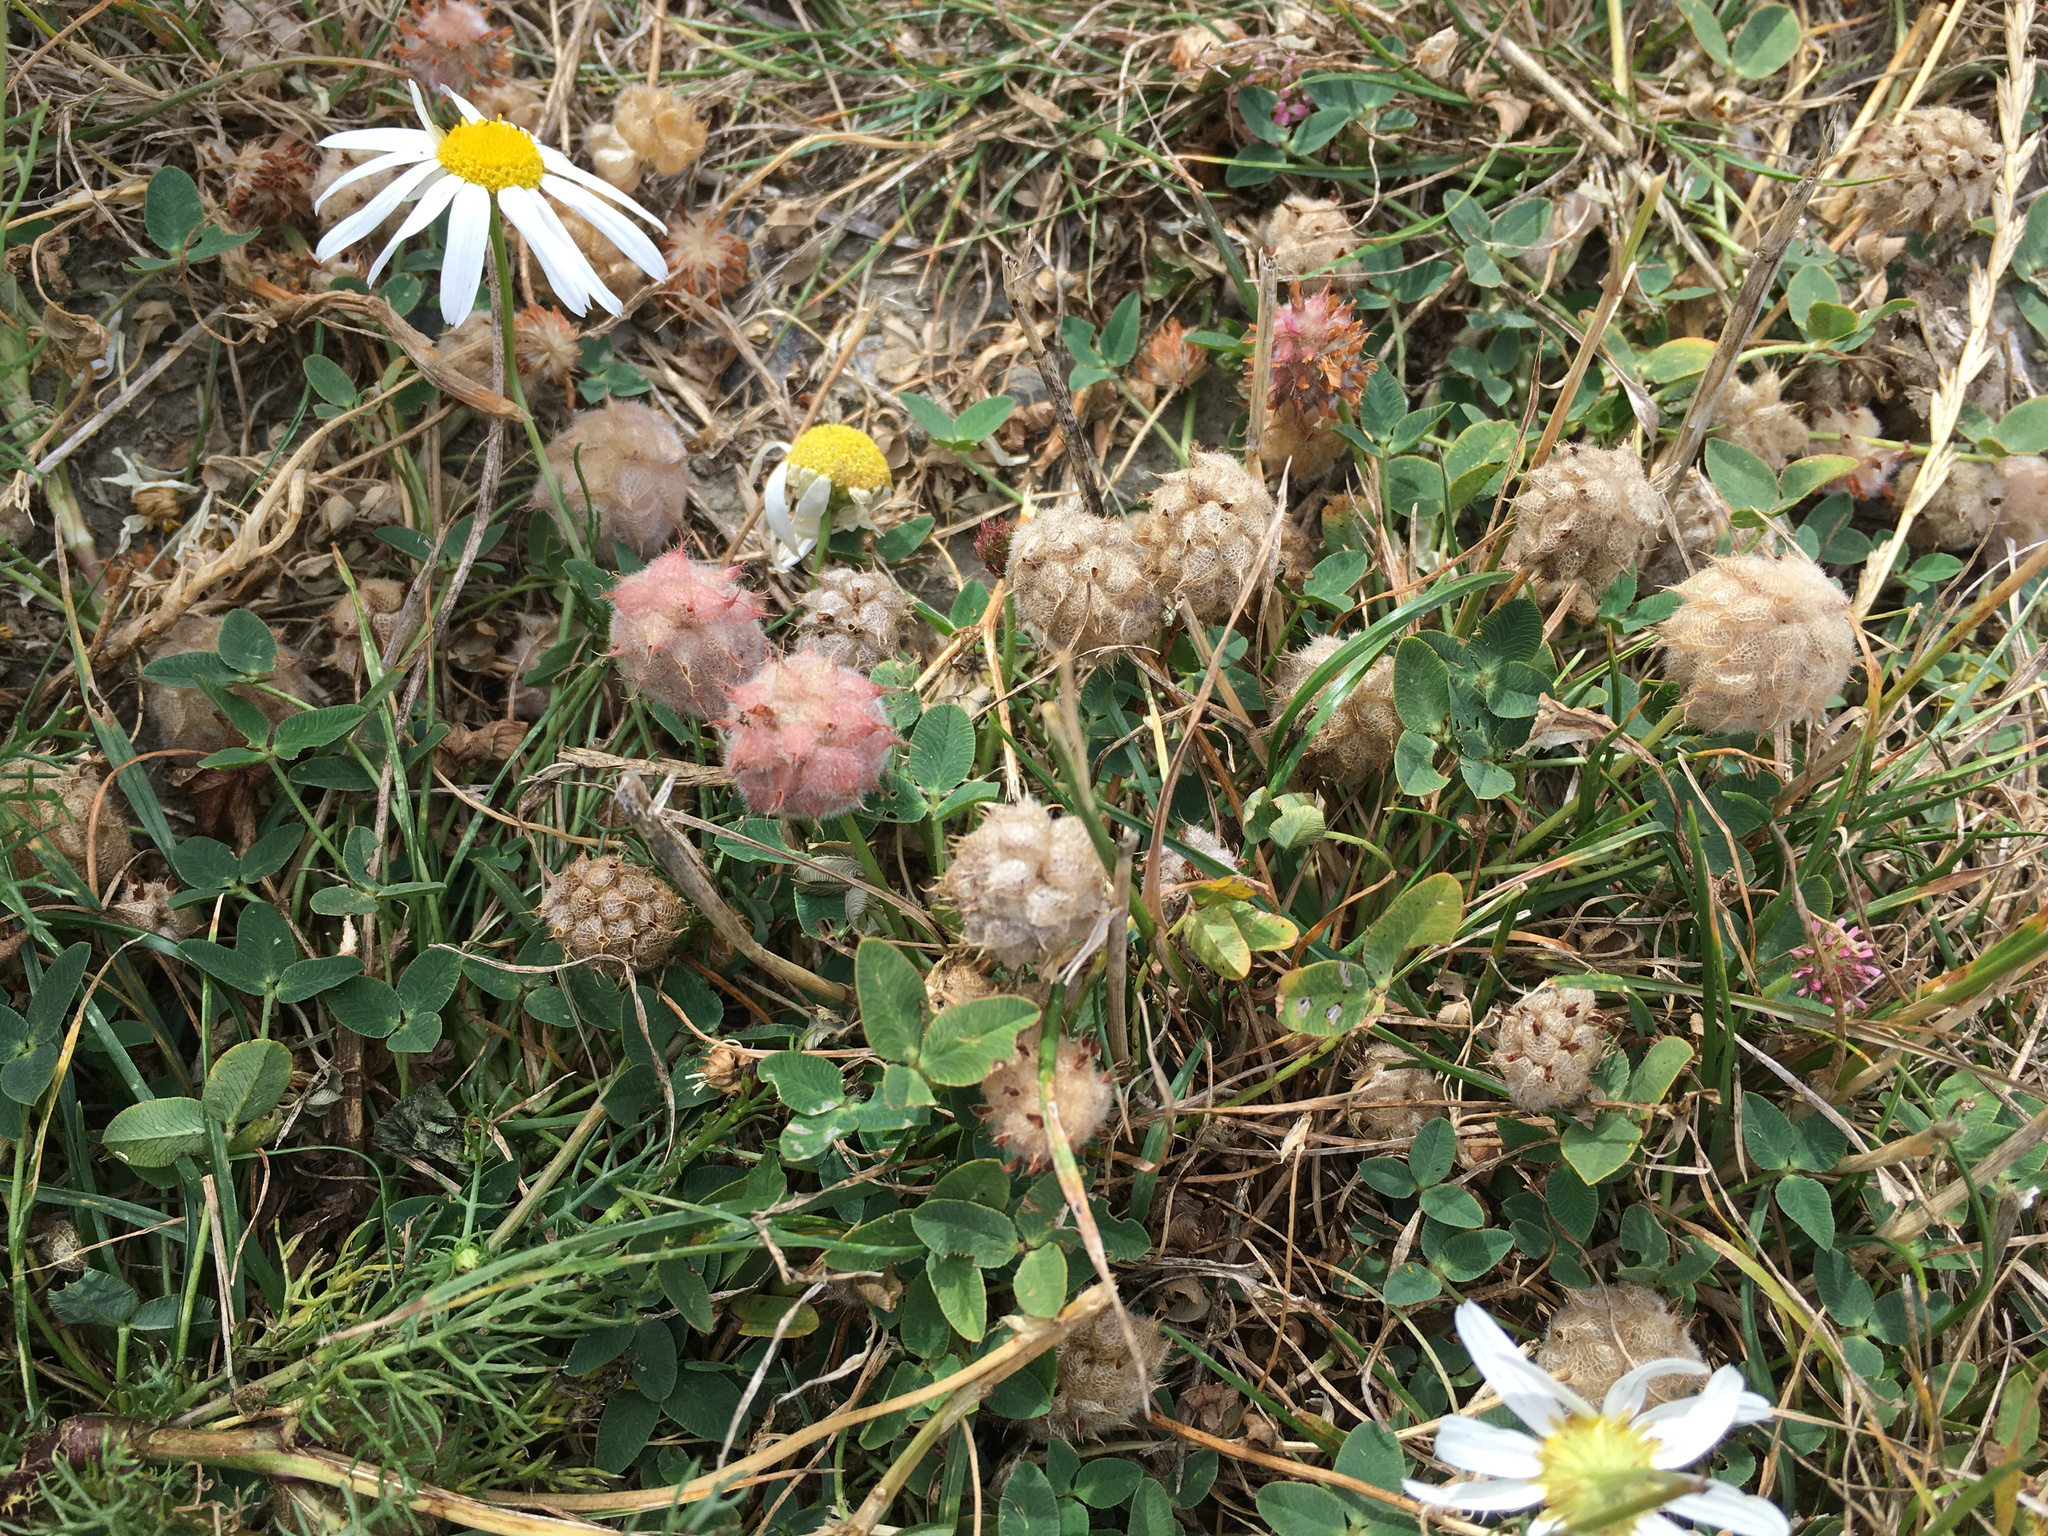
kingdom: Plantae
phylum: Tracheophyta
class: Magnoliopsida
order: Fabales
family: Fabaceae
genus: Trifolium
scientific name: Trifolium fragiferum
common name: Strawberry clover
